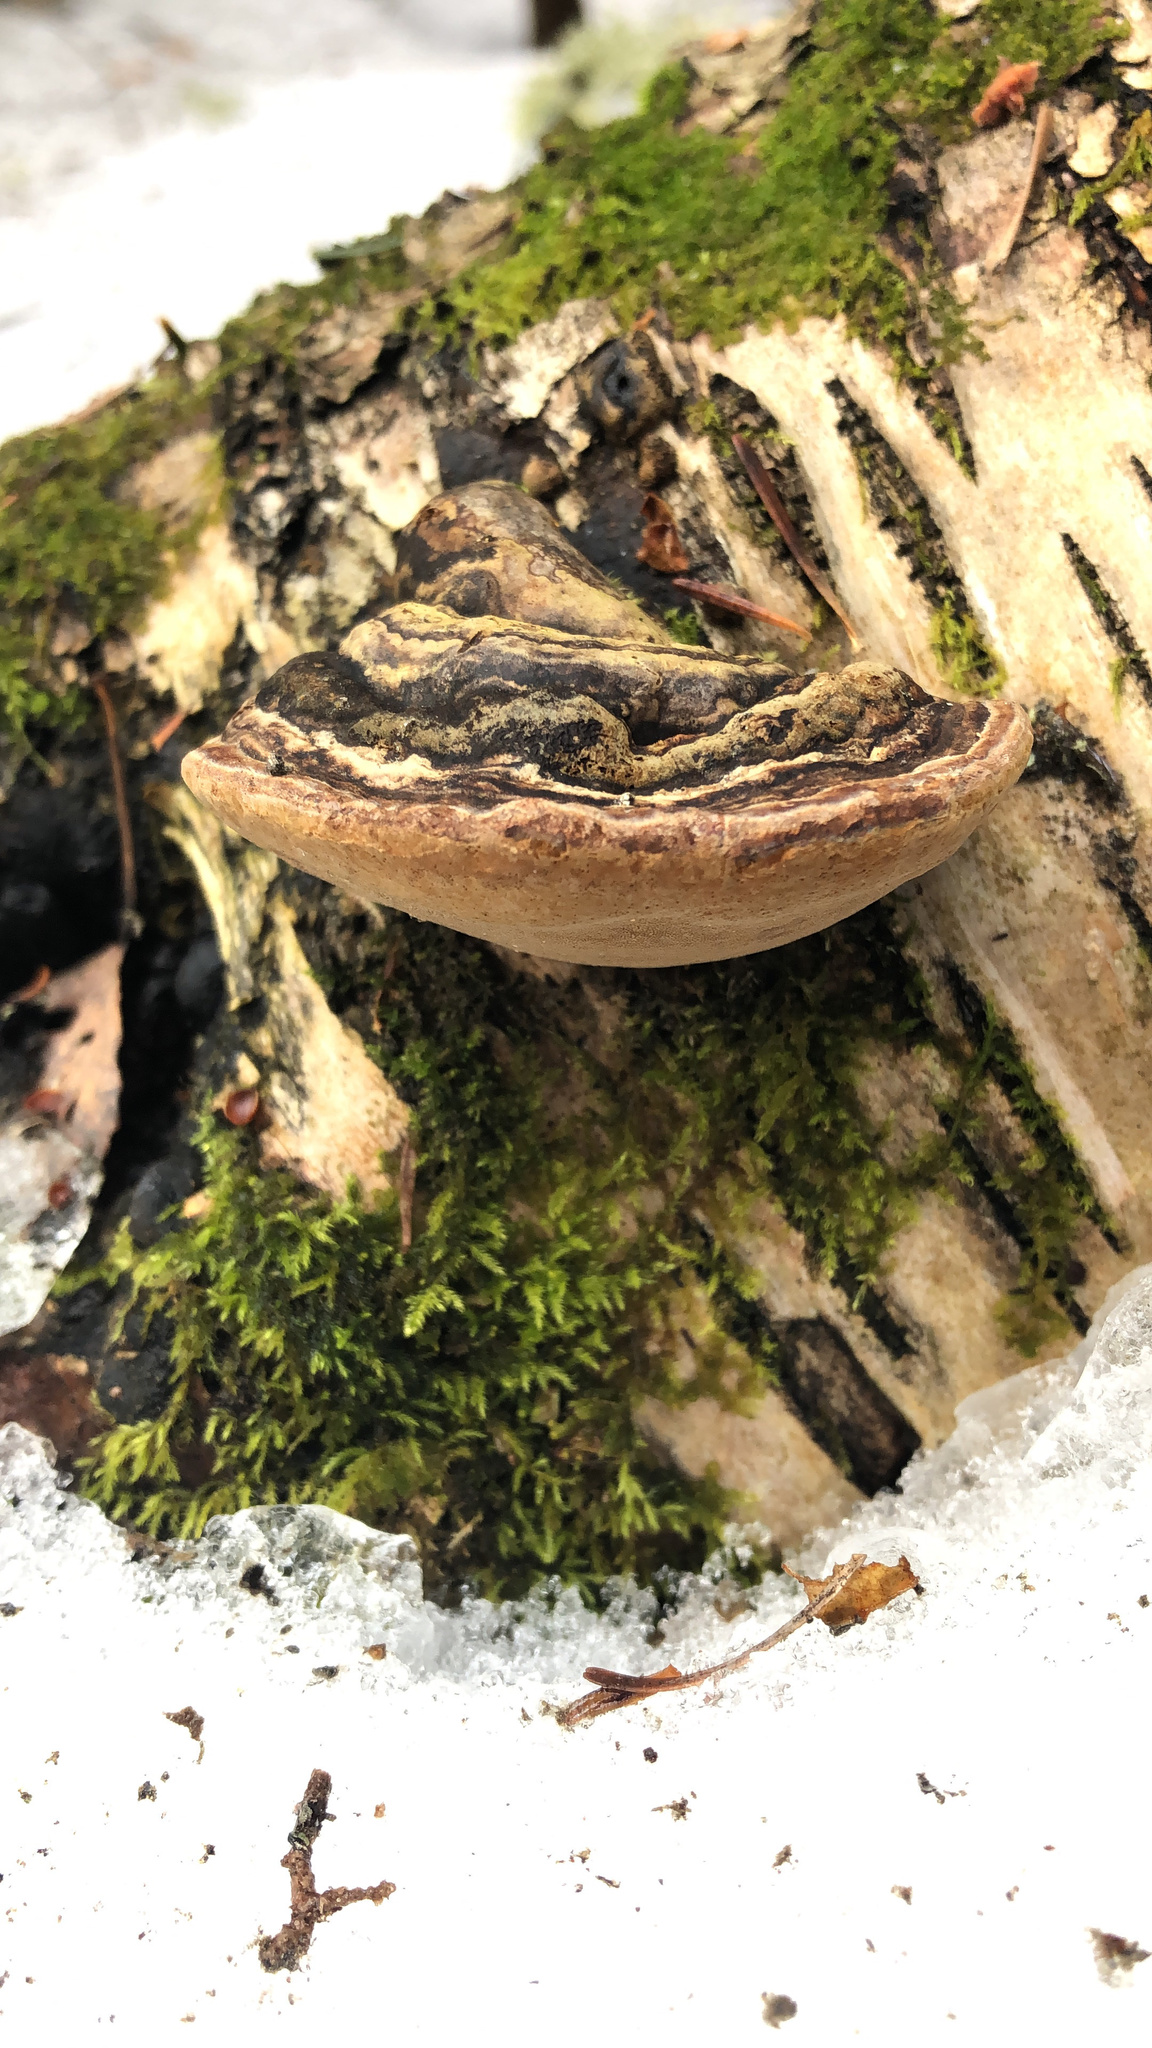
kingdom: Fungi
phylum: Basidiomycota
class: Agaricomycetes
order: Hymenochaetales
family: Hymenochaetaceae
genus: Phellinus
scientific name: Phellinus igniarius
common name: Willow bracket
